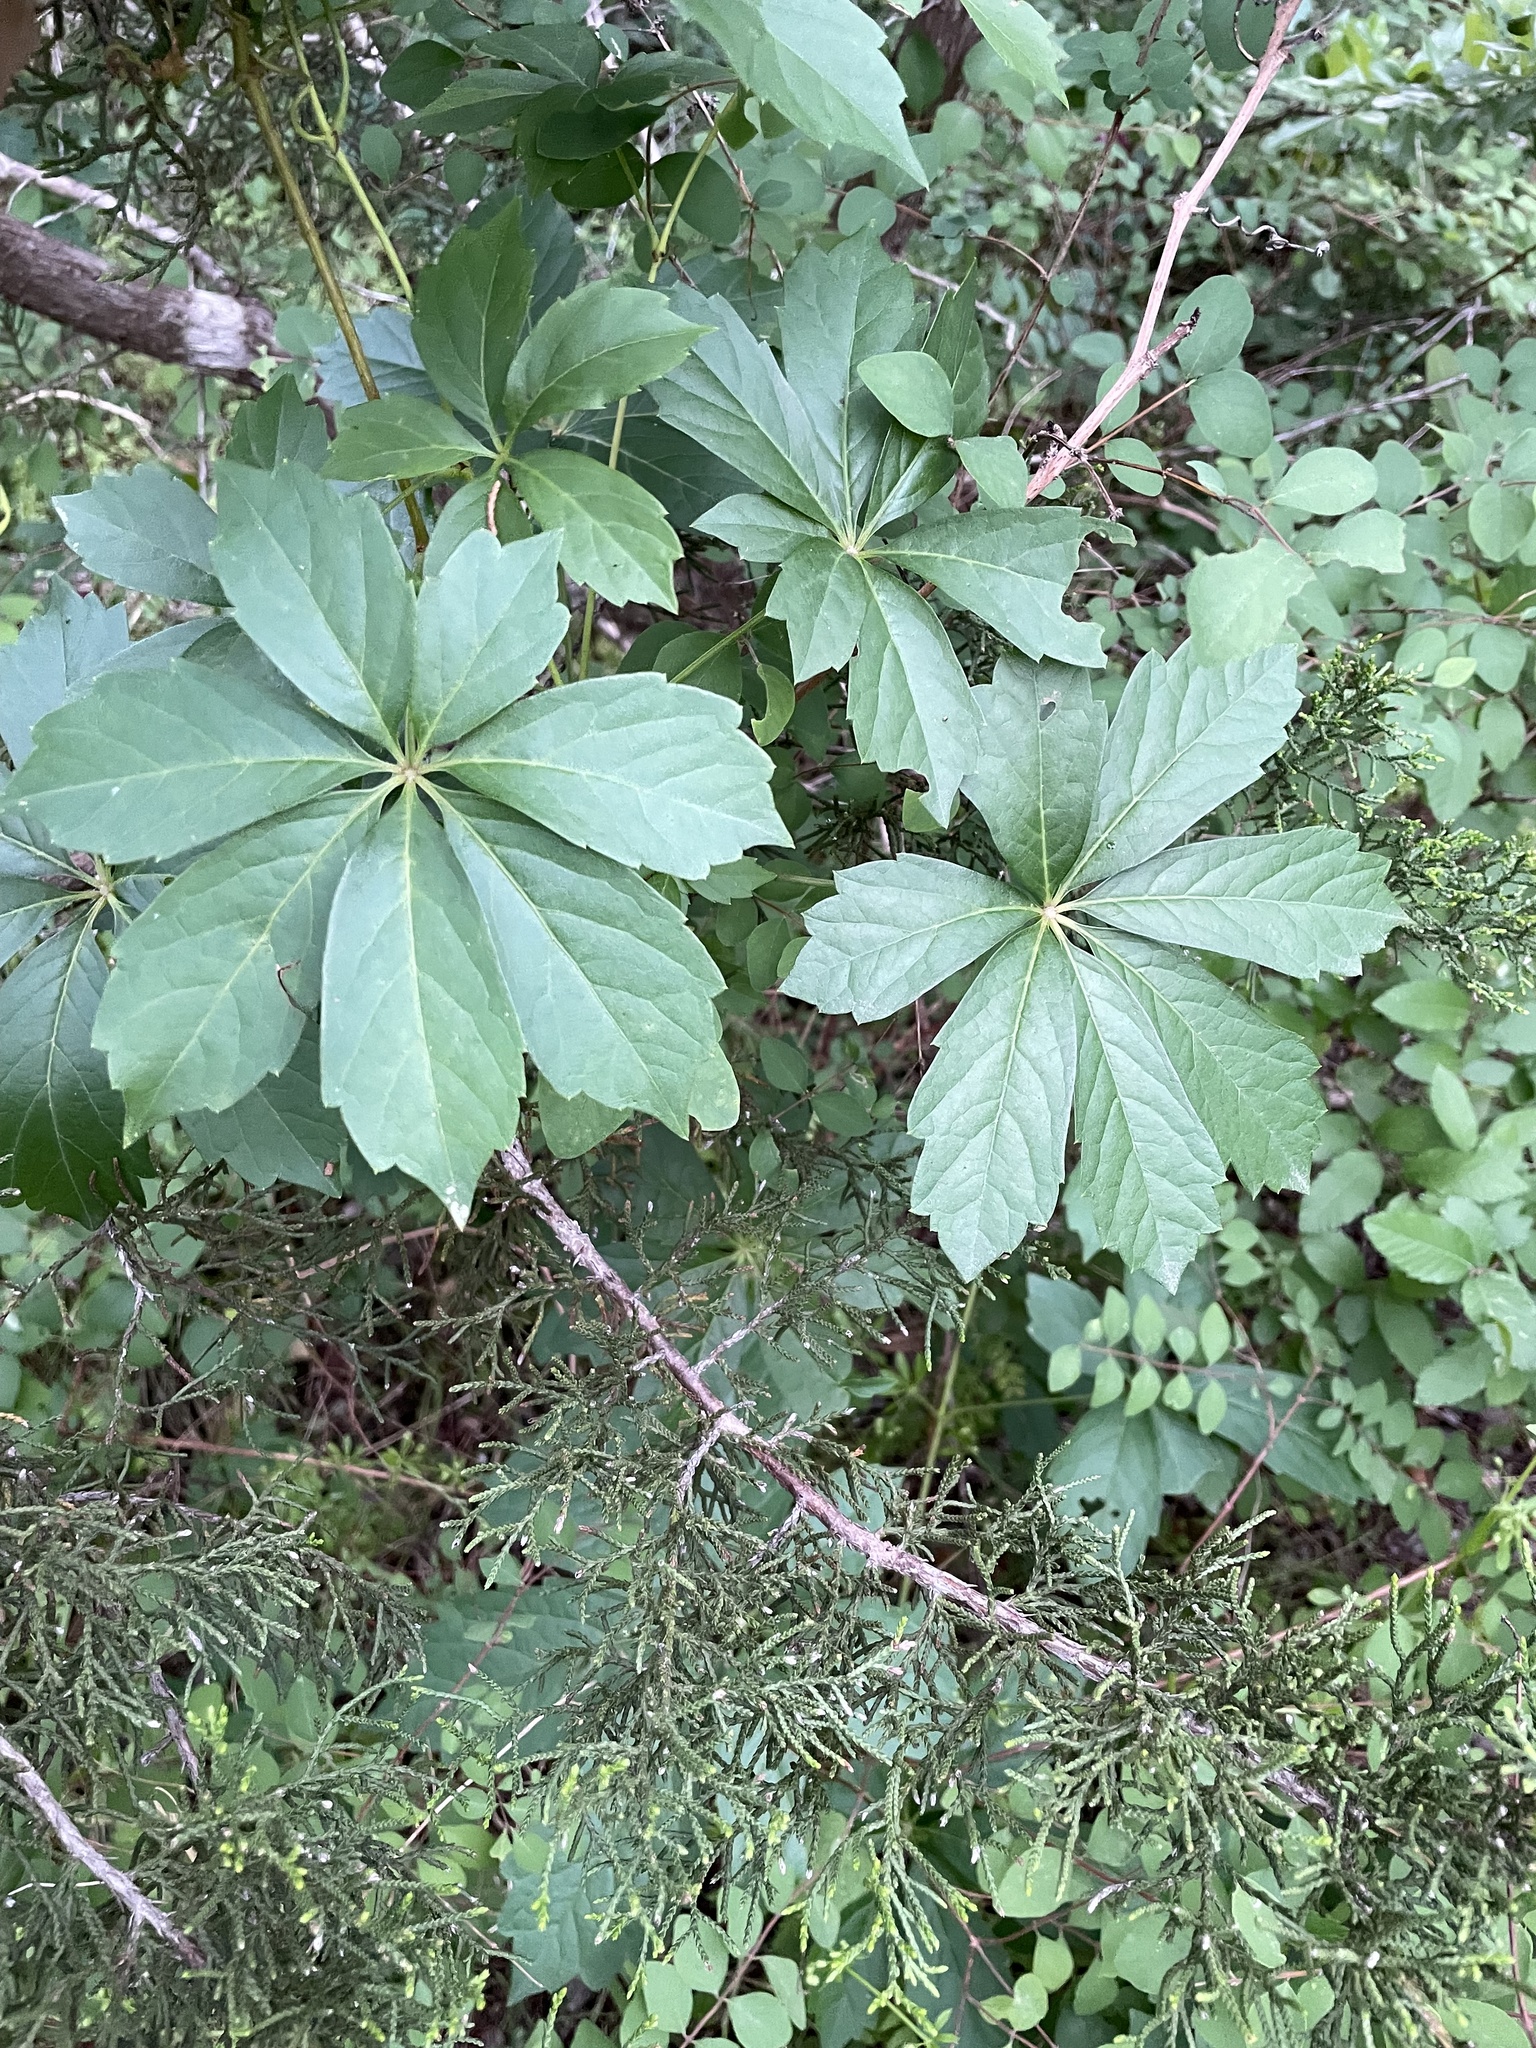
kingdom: Plantae
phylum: Tracheophyta
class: Magnoliopsida
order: Vitales
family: Vitaceae
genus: Parthenocissus
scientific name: Parthenocissus heptaphylla
